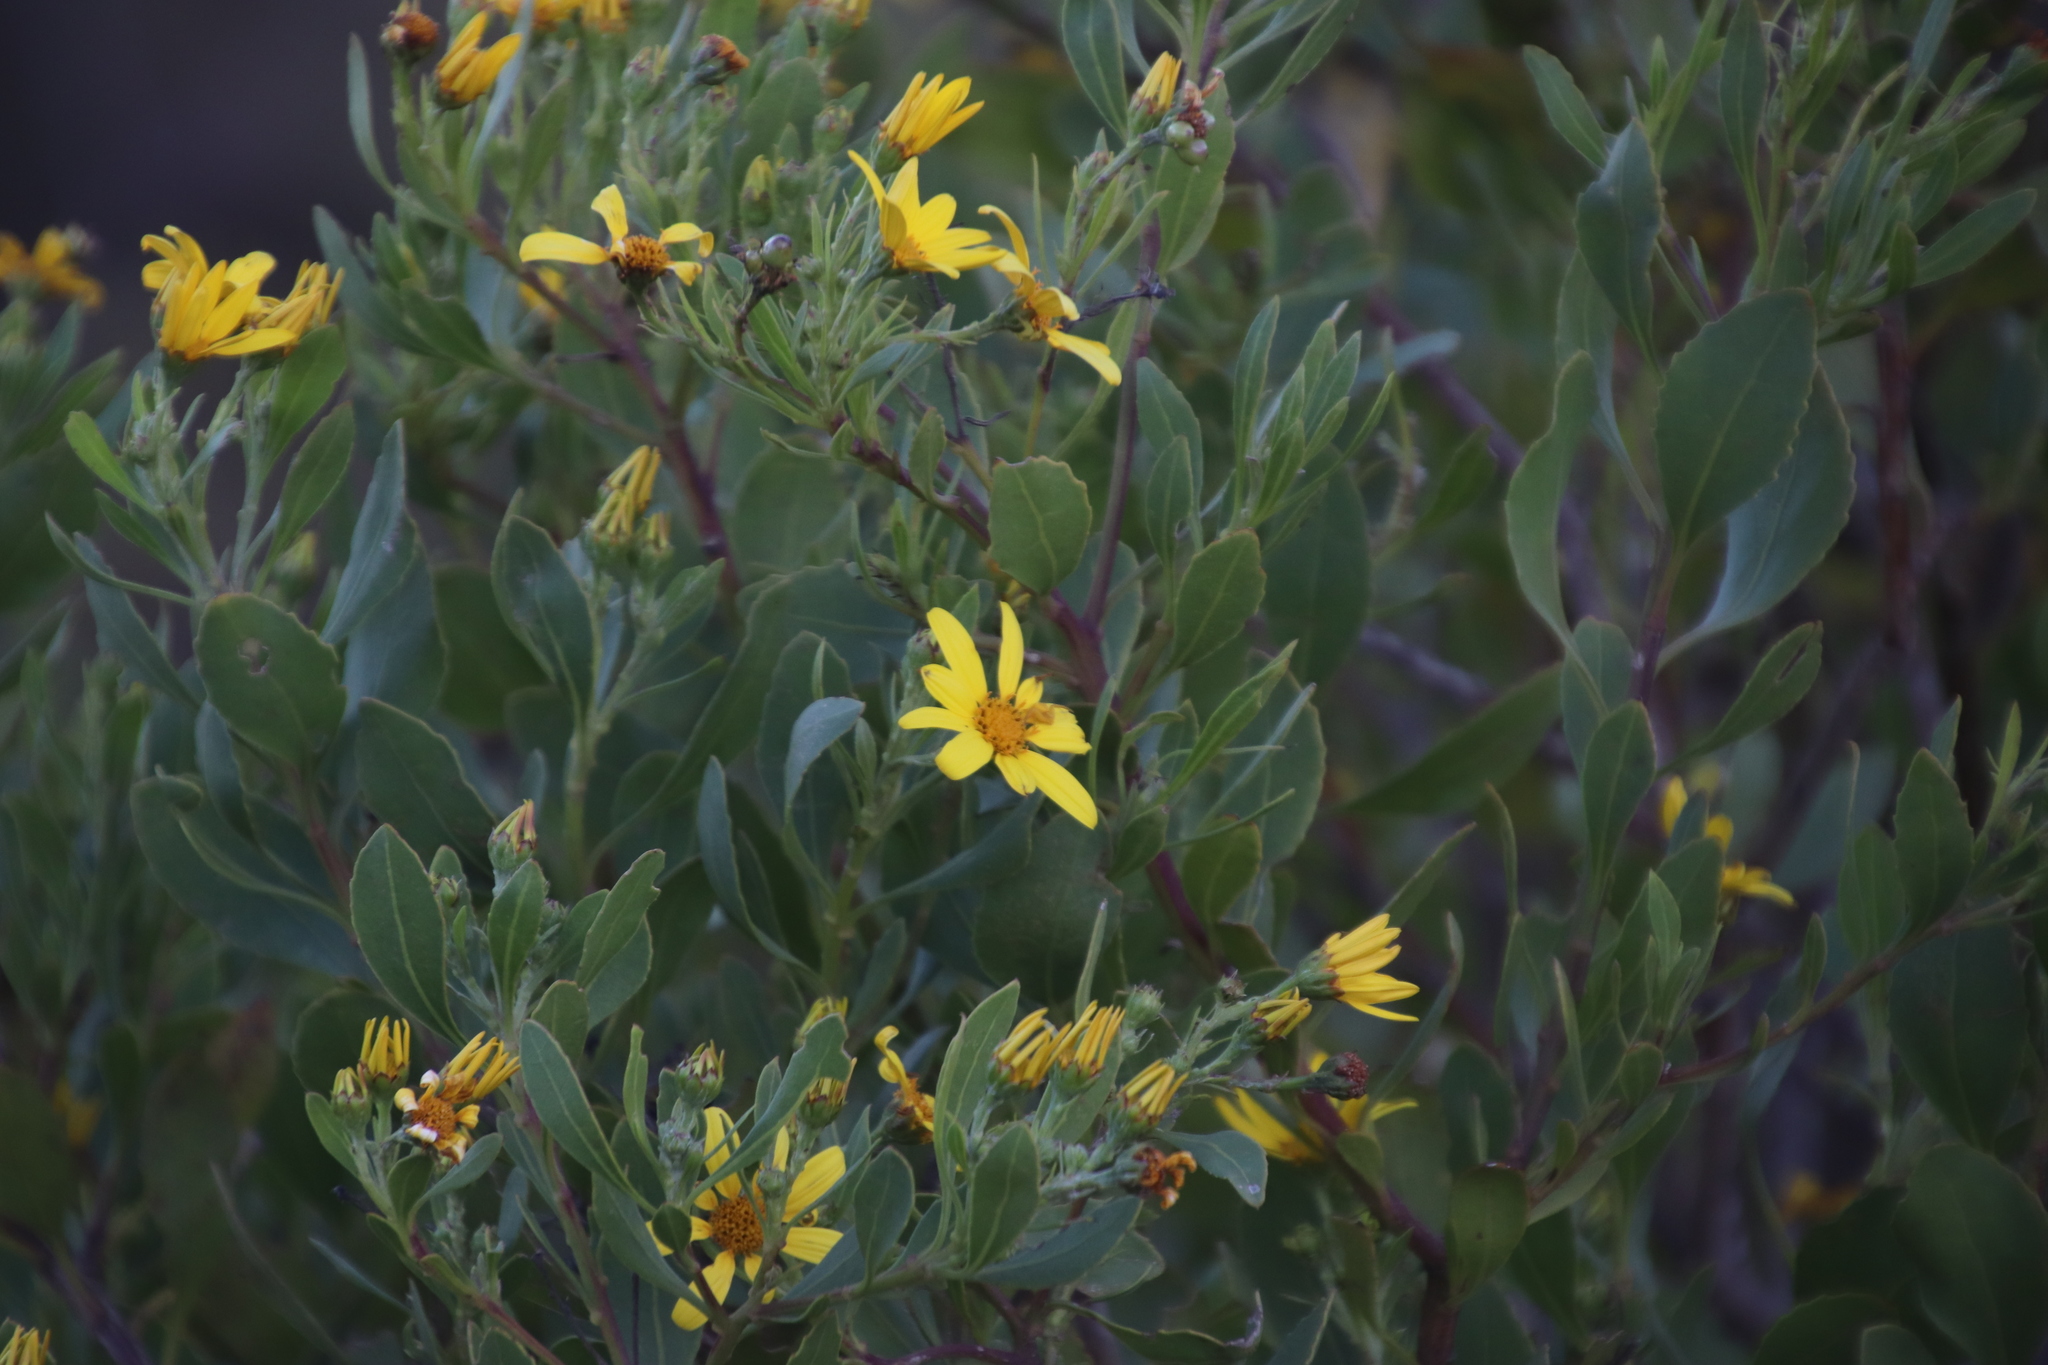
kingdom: Plantae
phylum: Tracheophyta
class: Magnoliopsida
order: Asterales
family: Asteraceae
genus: Osteospermum
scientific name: Osteospermum moniliferum
